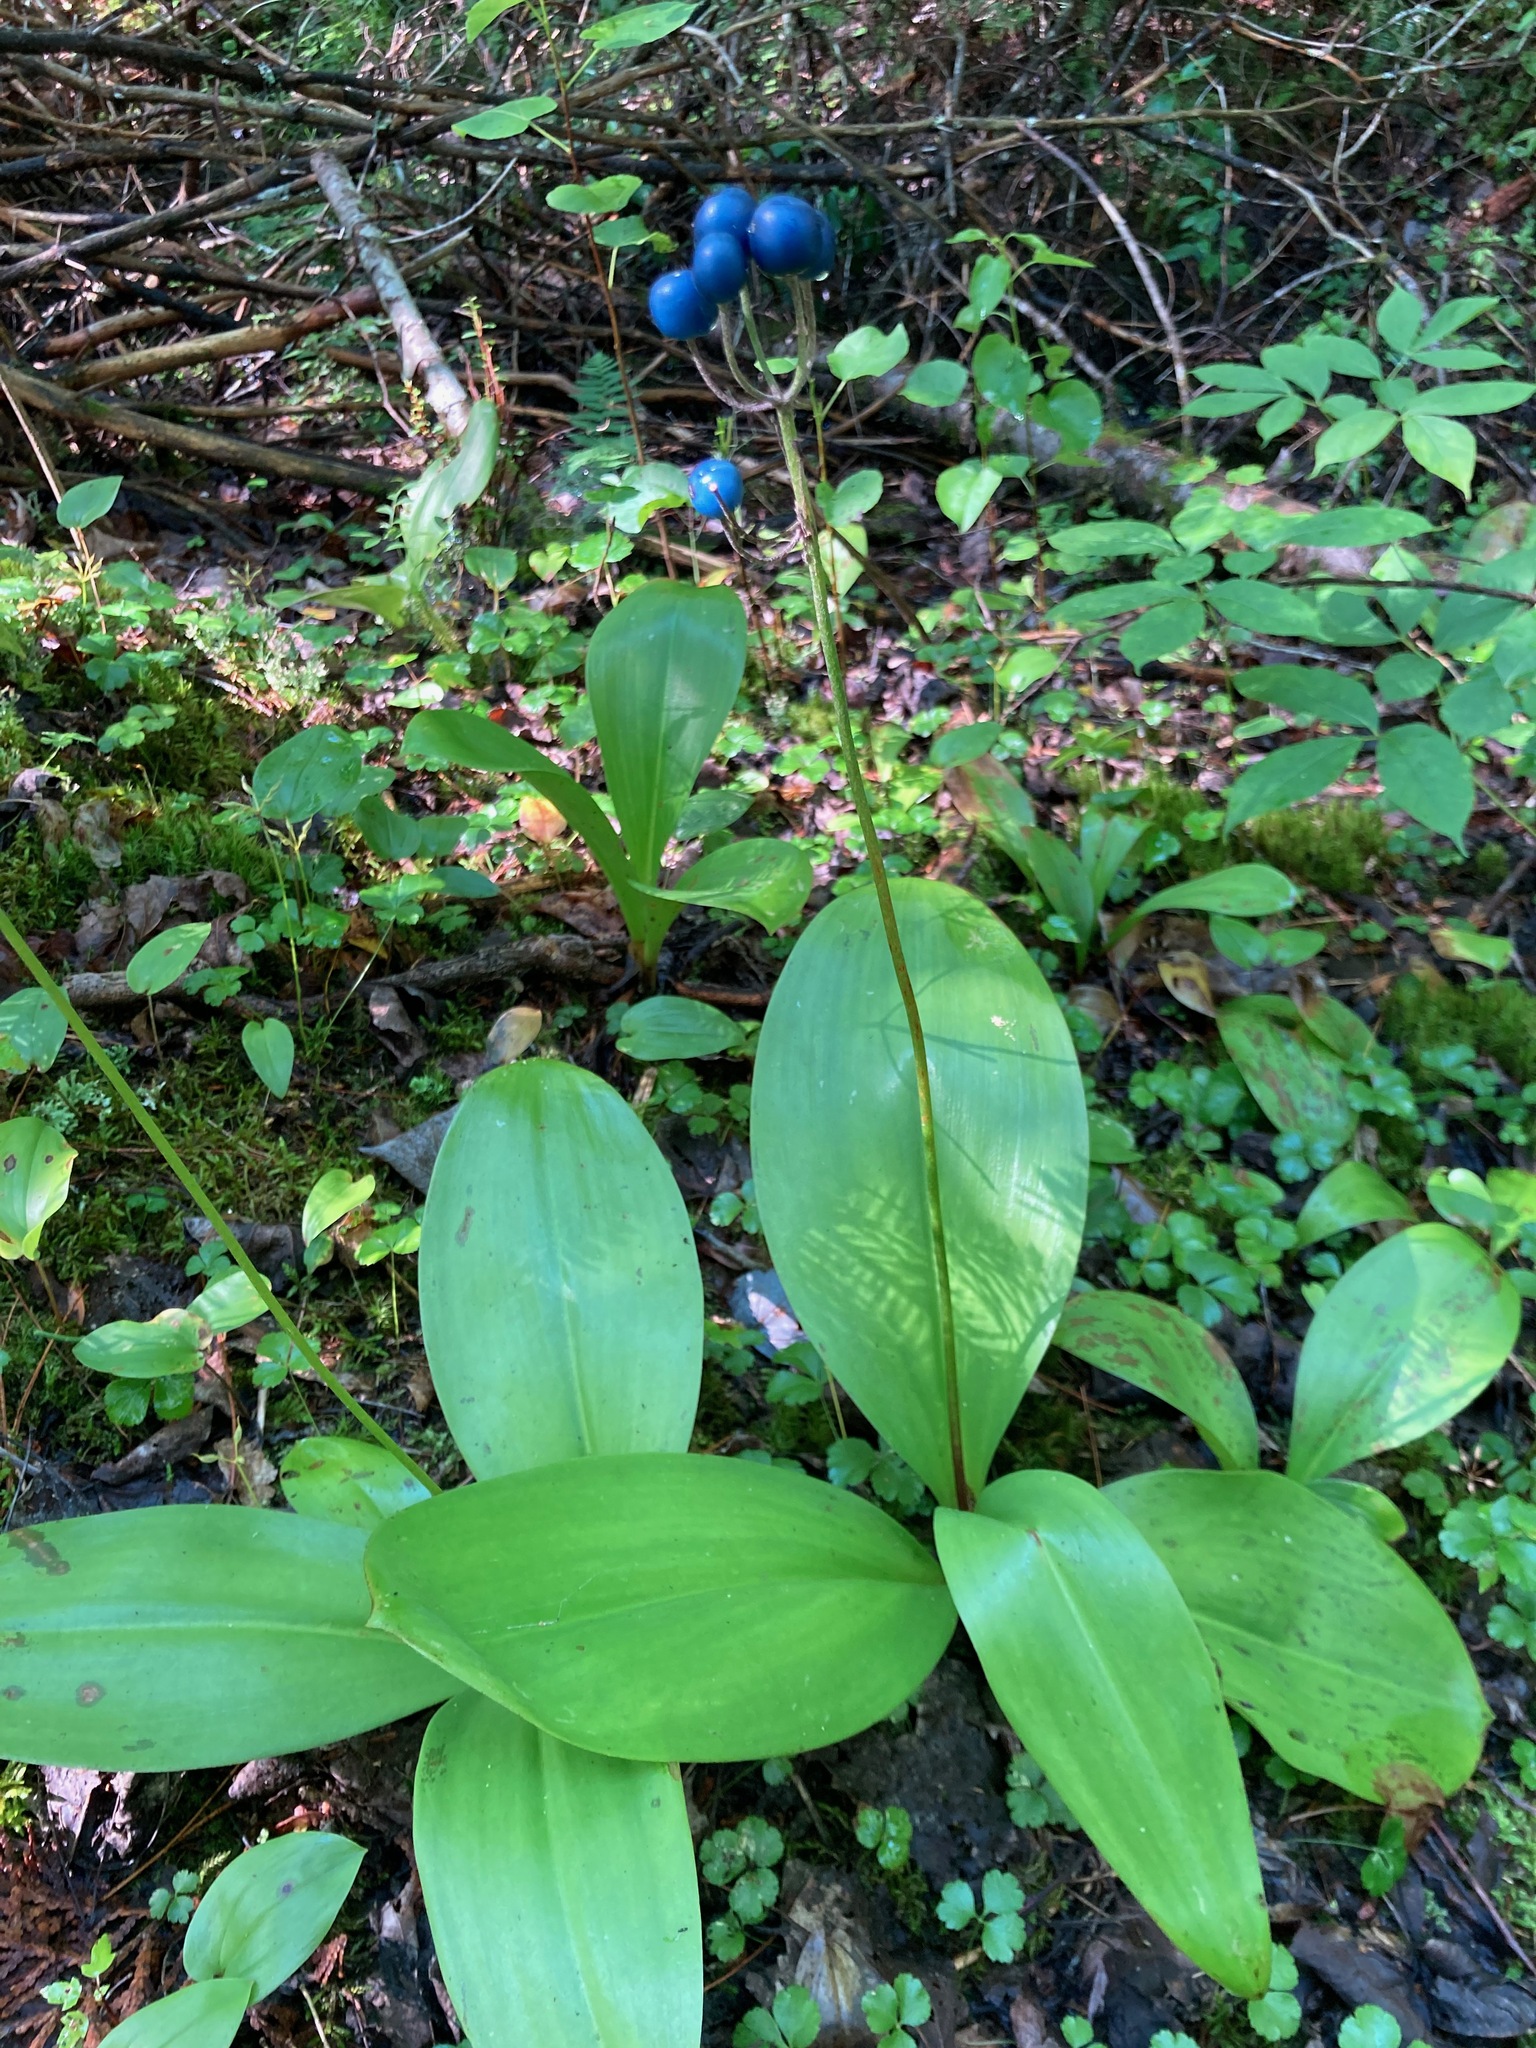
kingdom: Plantae
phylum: Tracheophyta
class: Liliopsida
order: Liliales
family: Liliaceae
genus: Clintonia
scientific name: Clintonia borealis
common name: Yellow clintonia
